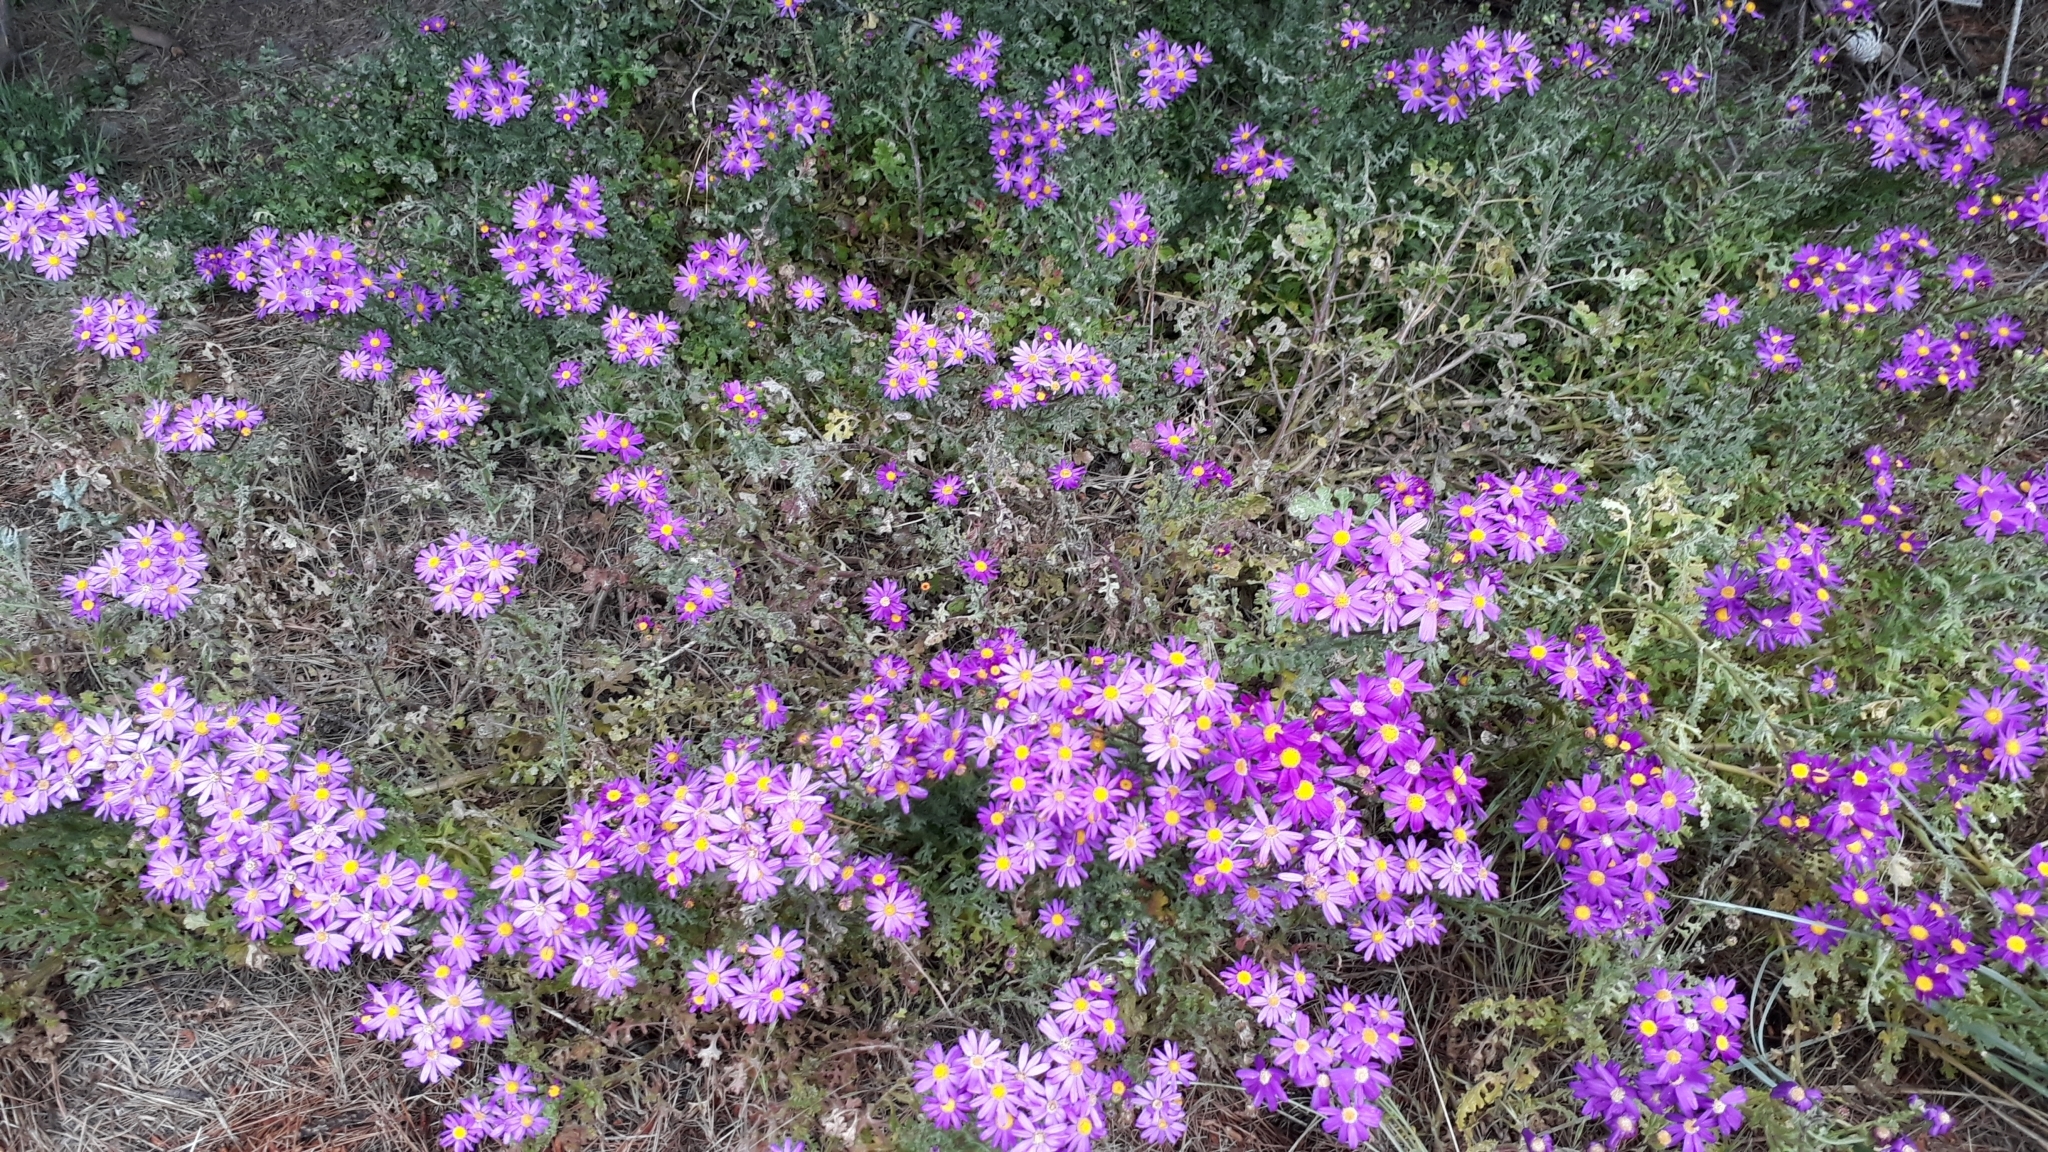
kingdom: Plantae
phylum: Tracheophyta
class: Magnoliopsida
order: Asterales
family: Asteraceae
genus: Senecio
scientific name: Senecio elegans
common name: Purple groundsel
